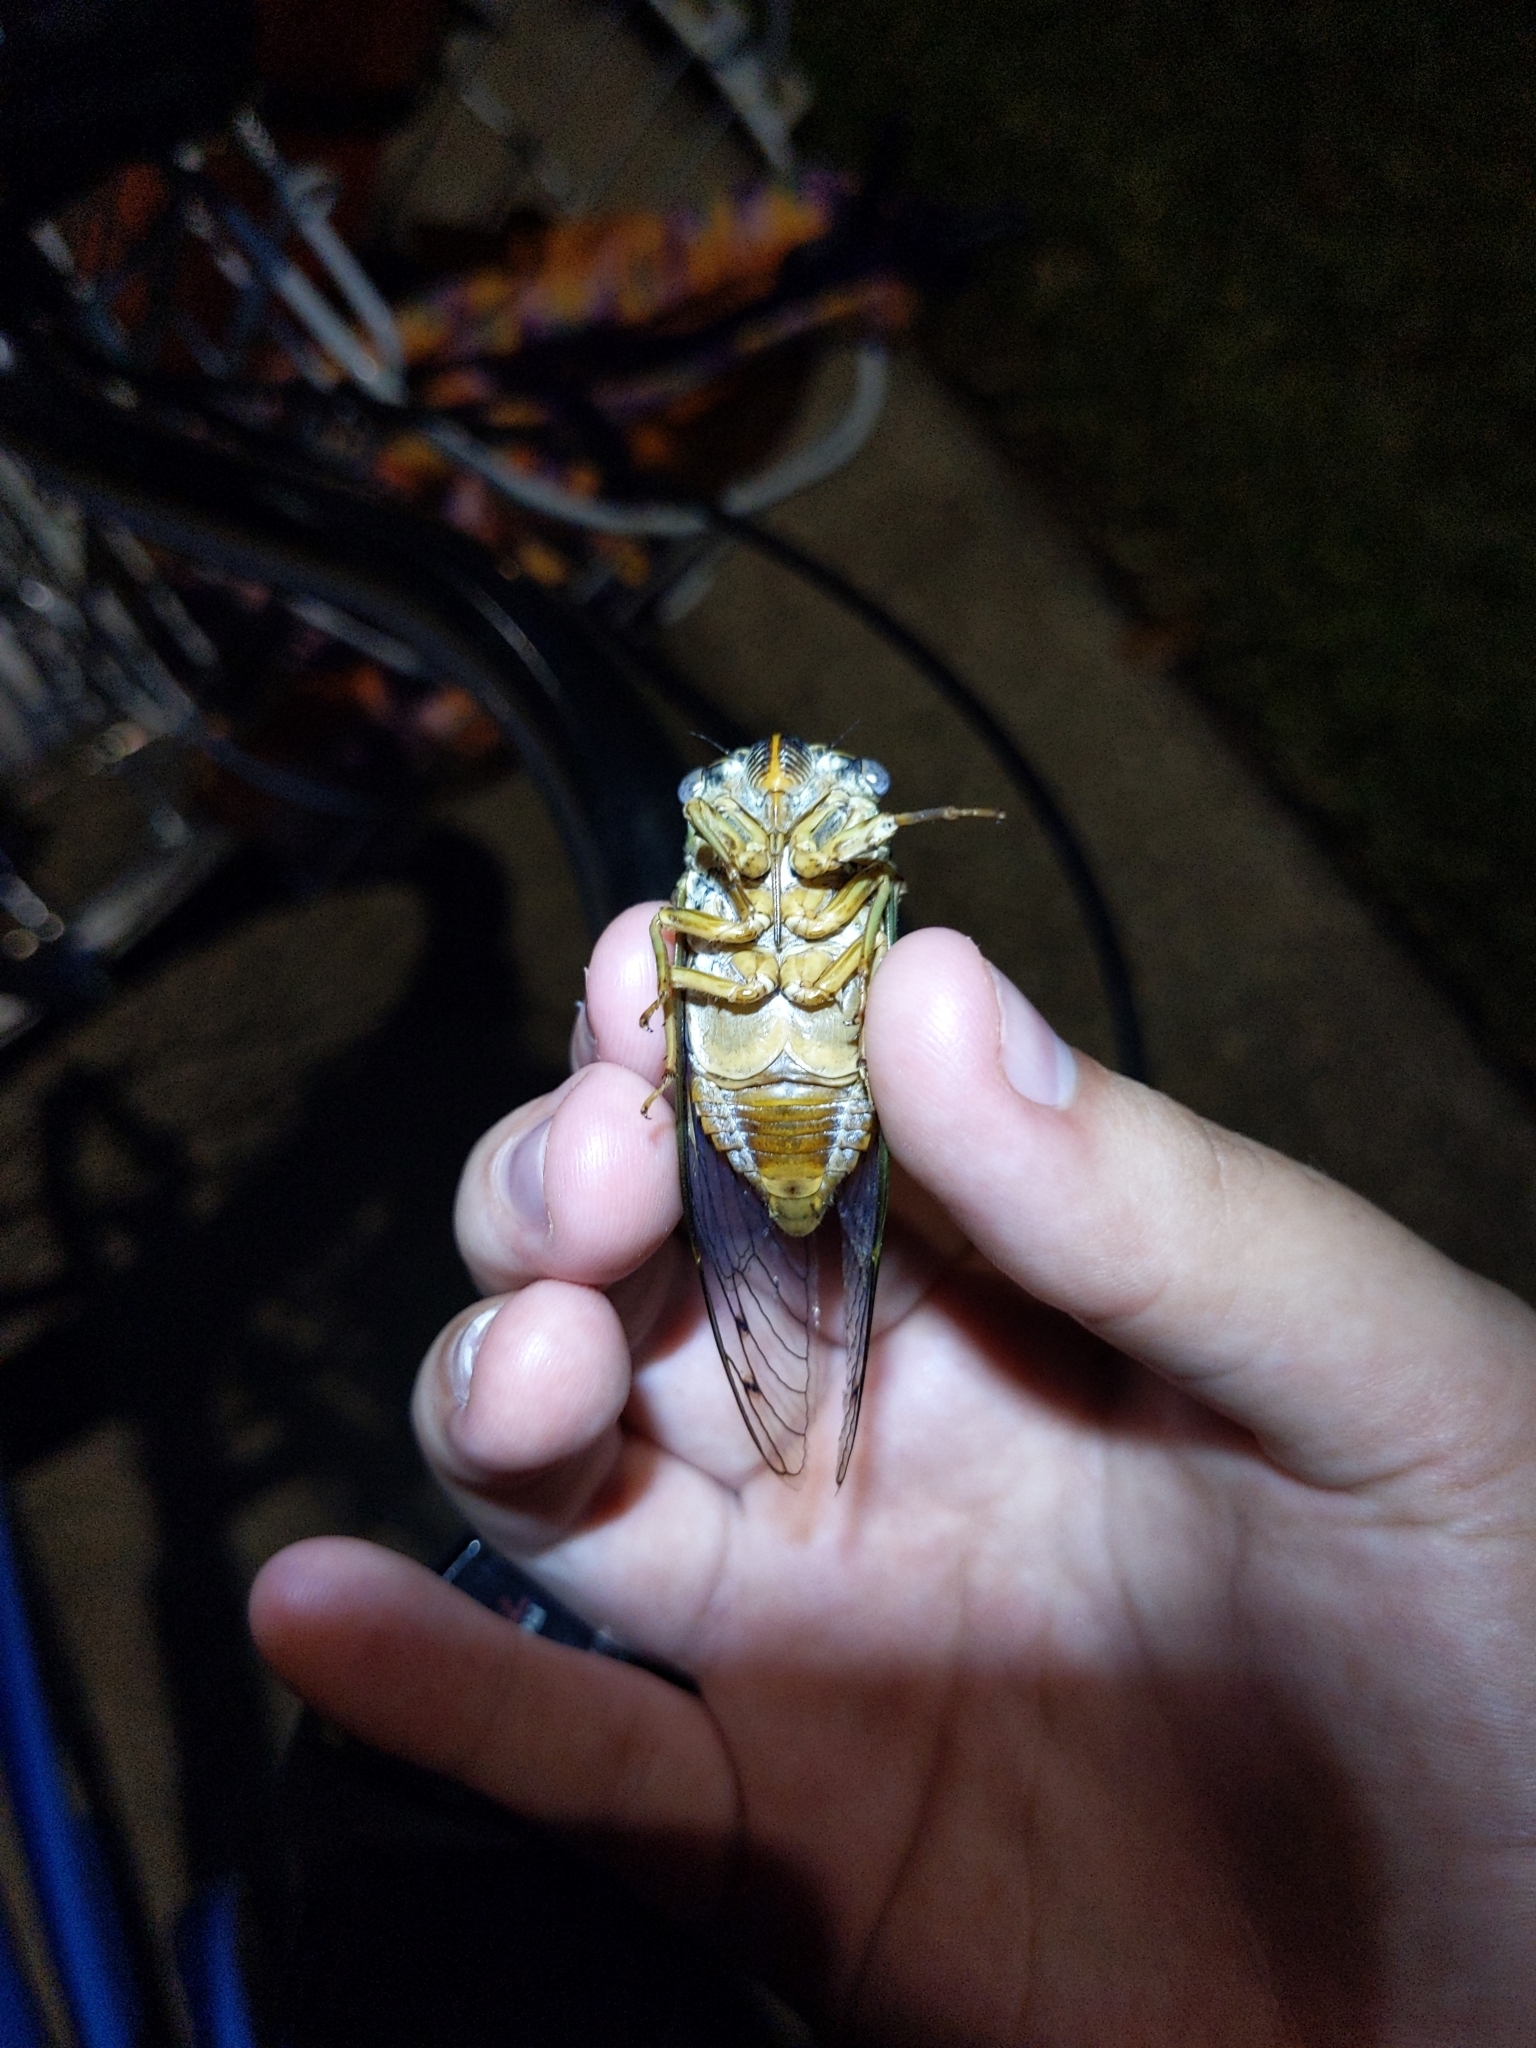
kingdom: Animalia
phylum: Arthropoda
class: Insecta
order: Hemiptera
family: Cicadidae
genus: Megatibicen
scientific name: Megatibicen resh
